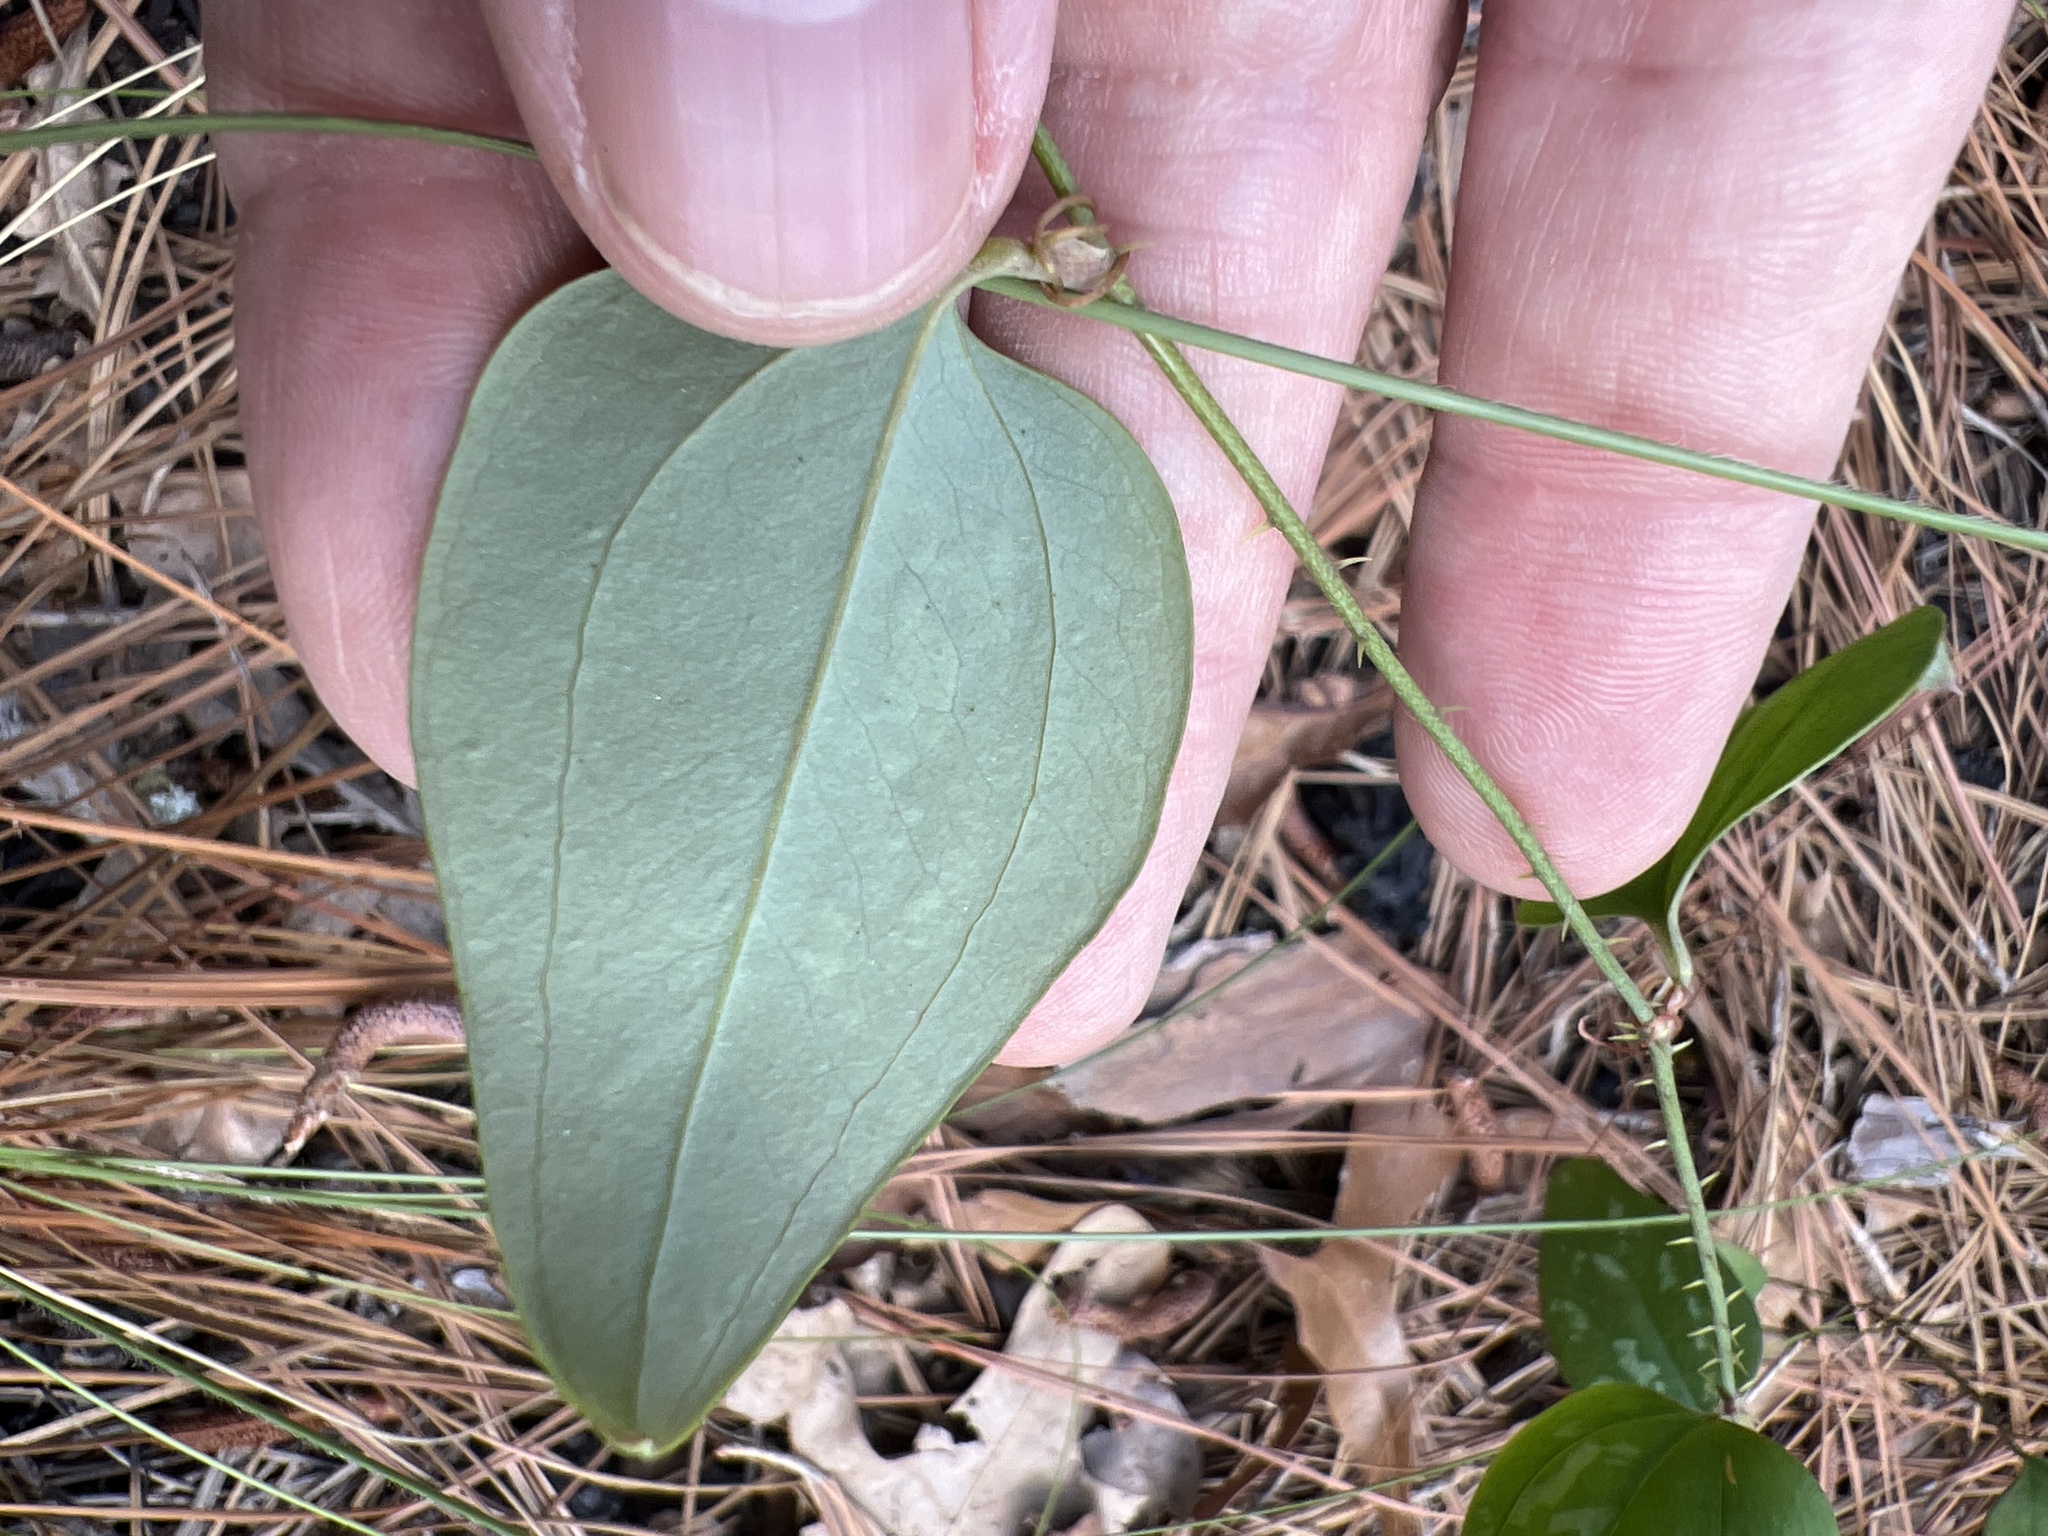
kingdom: Plantae
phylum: Tracheophyta
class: Liliopsida
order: Liliales
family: Smilacaceae
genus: Smilax
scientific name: Smilax glauca
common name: Cat greenbrier
